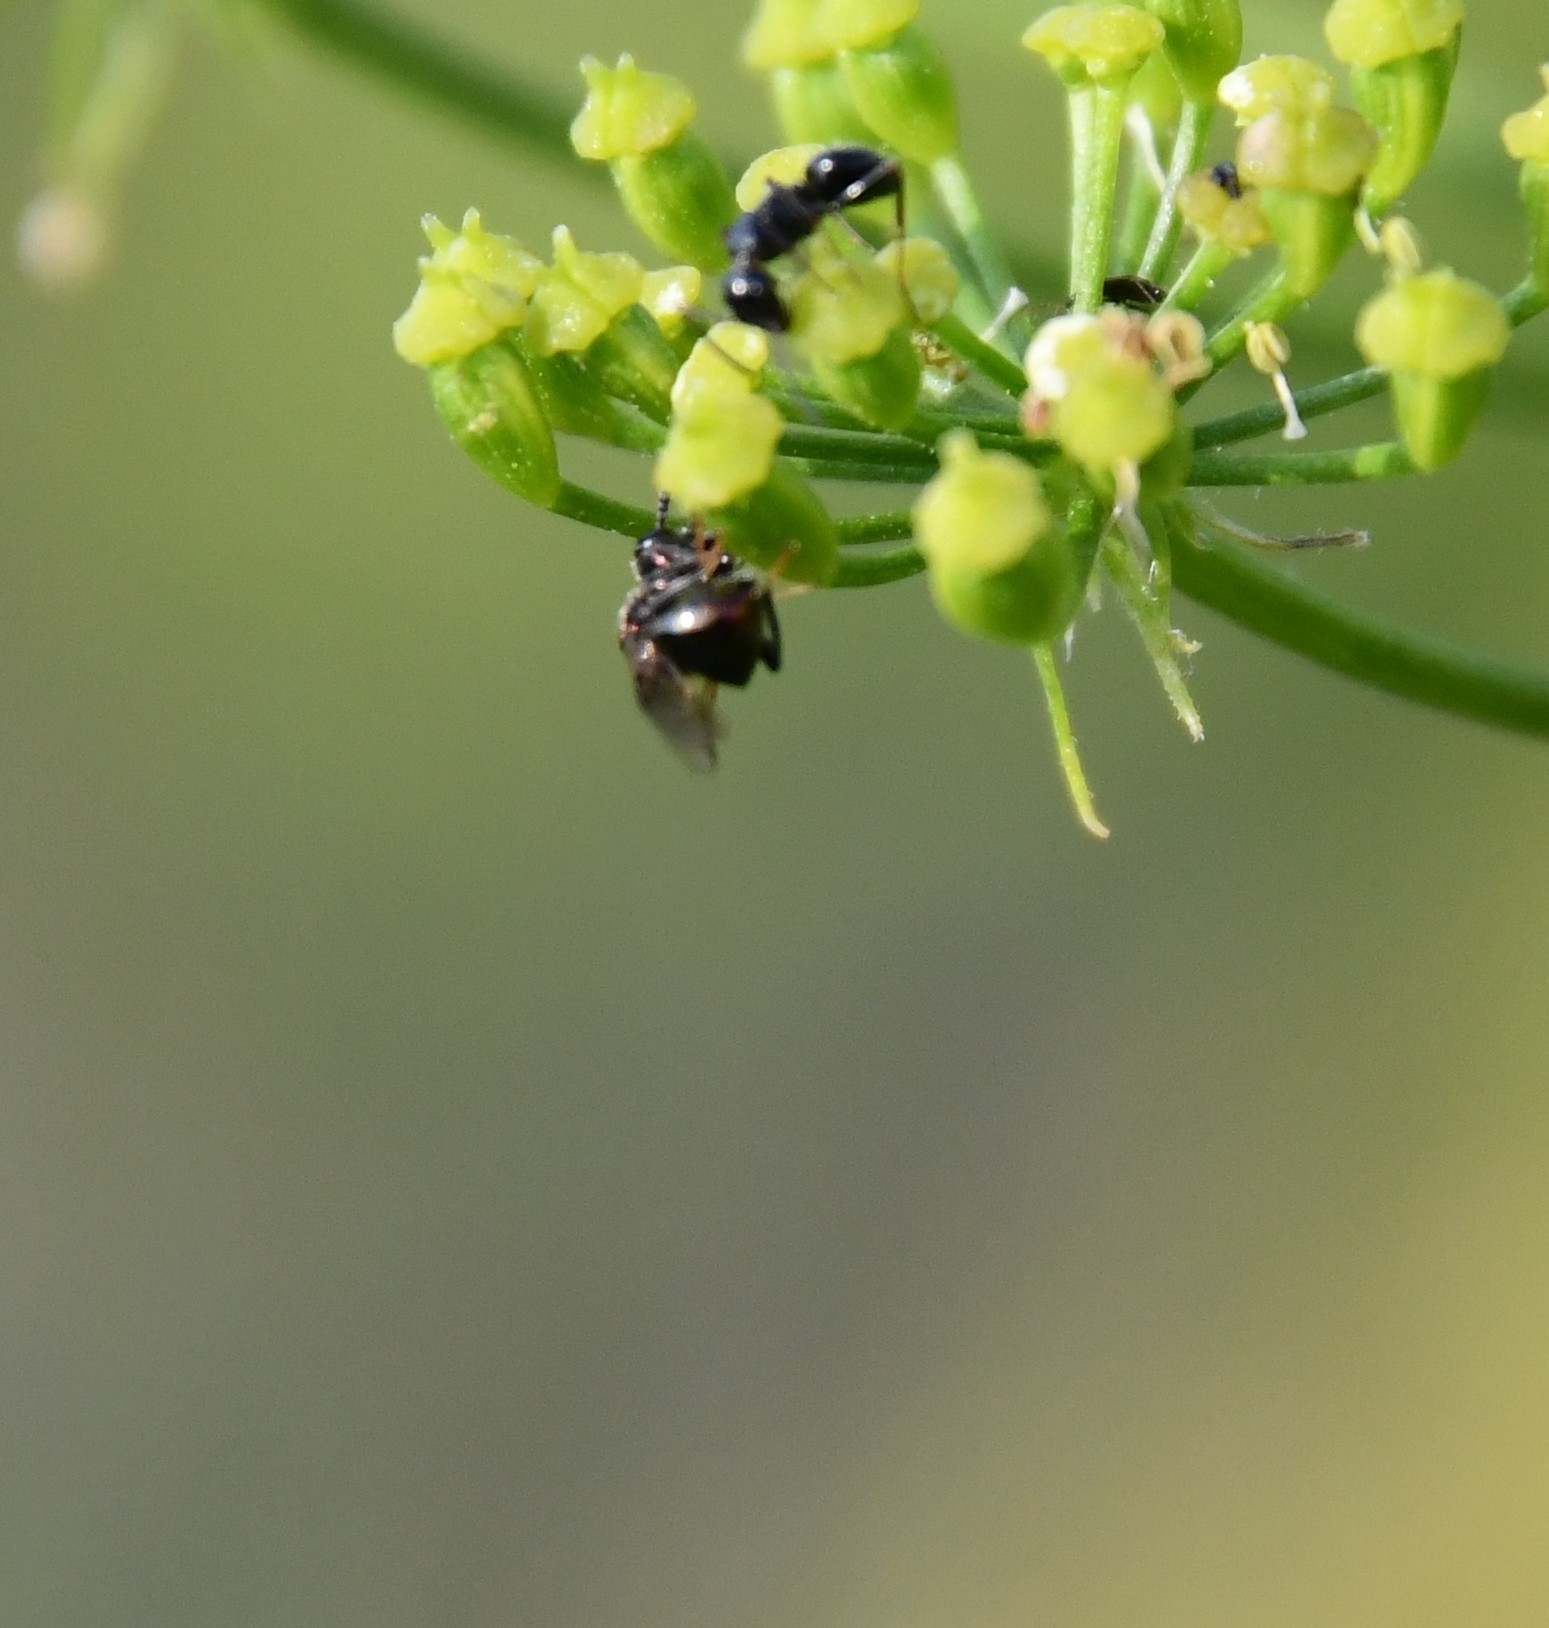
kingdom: Animalia
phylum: Arthropoda
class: Insecta
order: Hymenoptera
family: Perilampidae
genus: Perilampus
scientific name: Perilampus aeneus
